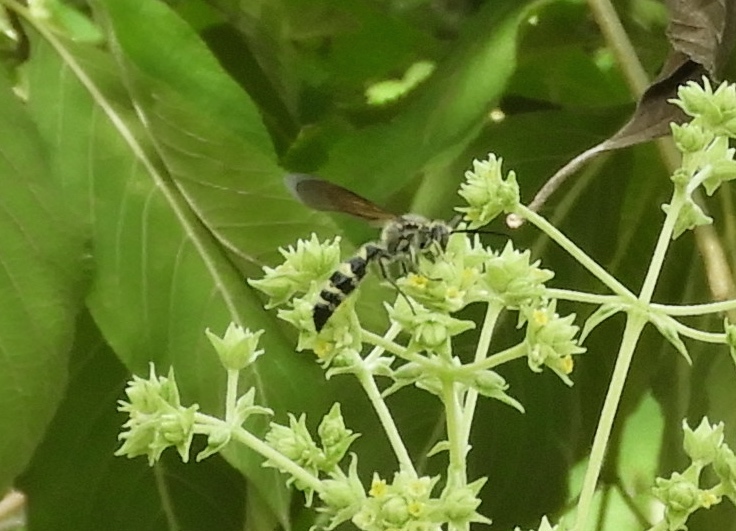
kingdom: Animalia
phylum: Arthropoda
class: Insecta
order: Hymenoptera
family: Scoliidae
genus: Dielis
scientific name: Dielis tolteca
